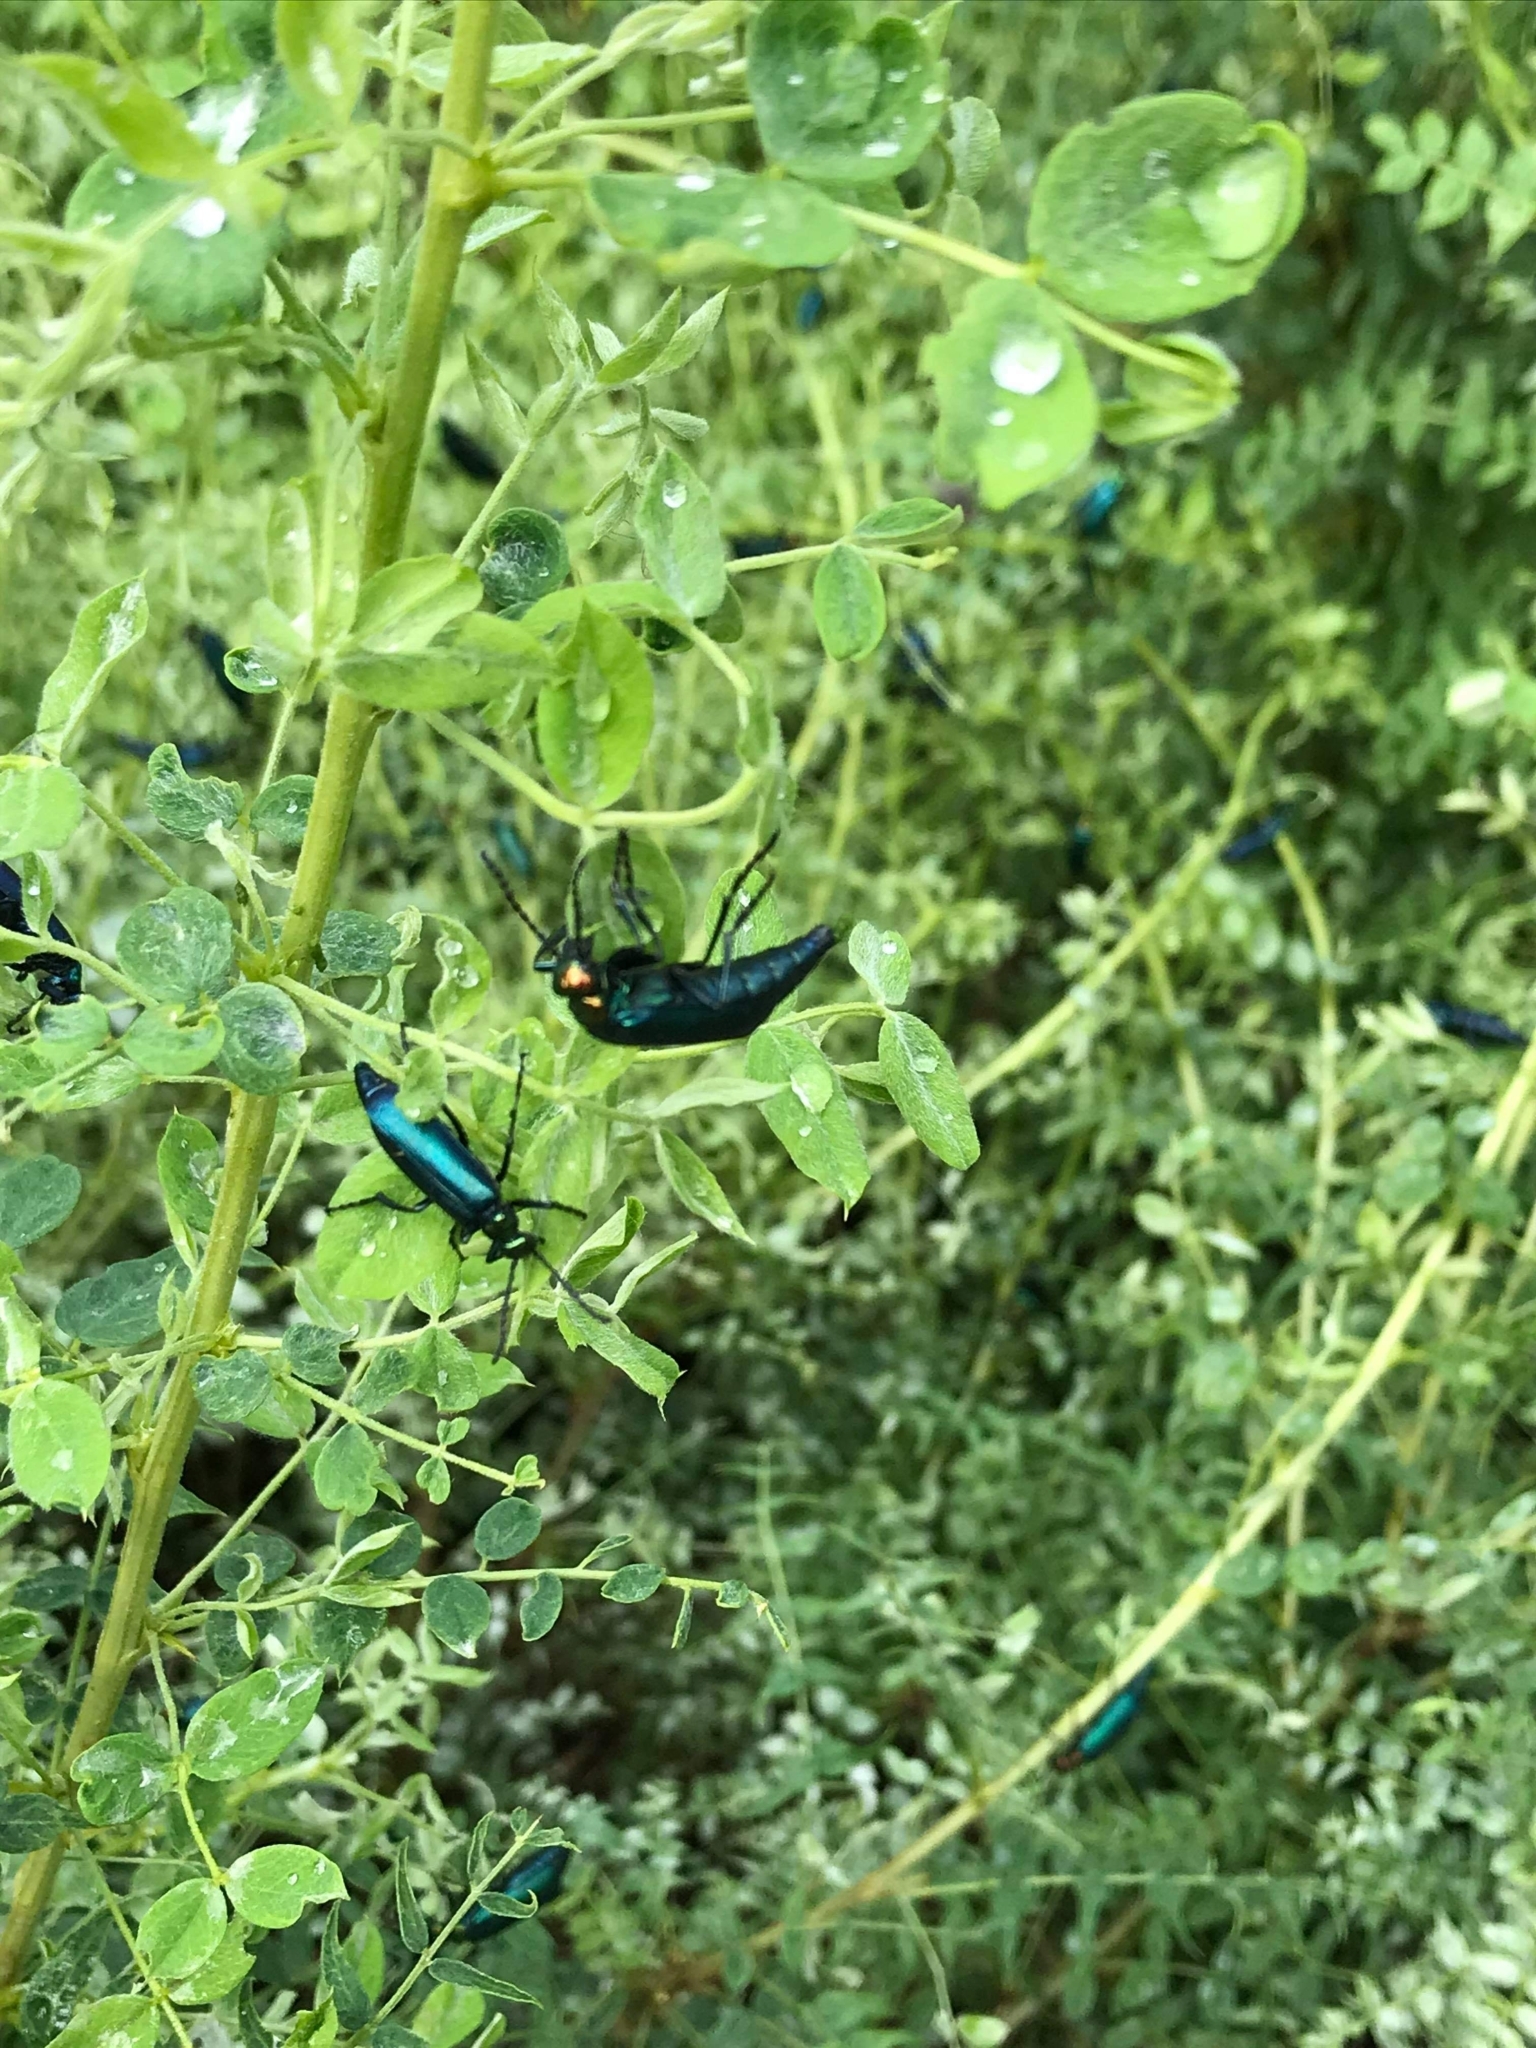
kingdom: Animalia
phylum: Arthropoda
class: Insecta
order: Coleoptera
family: Meloidae
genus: Lytta
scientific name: Lytta nuttallii
